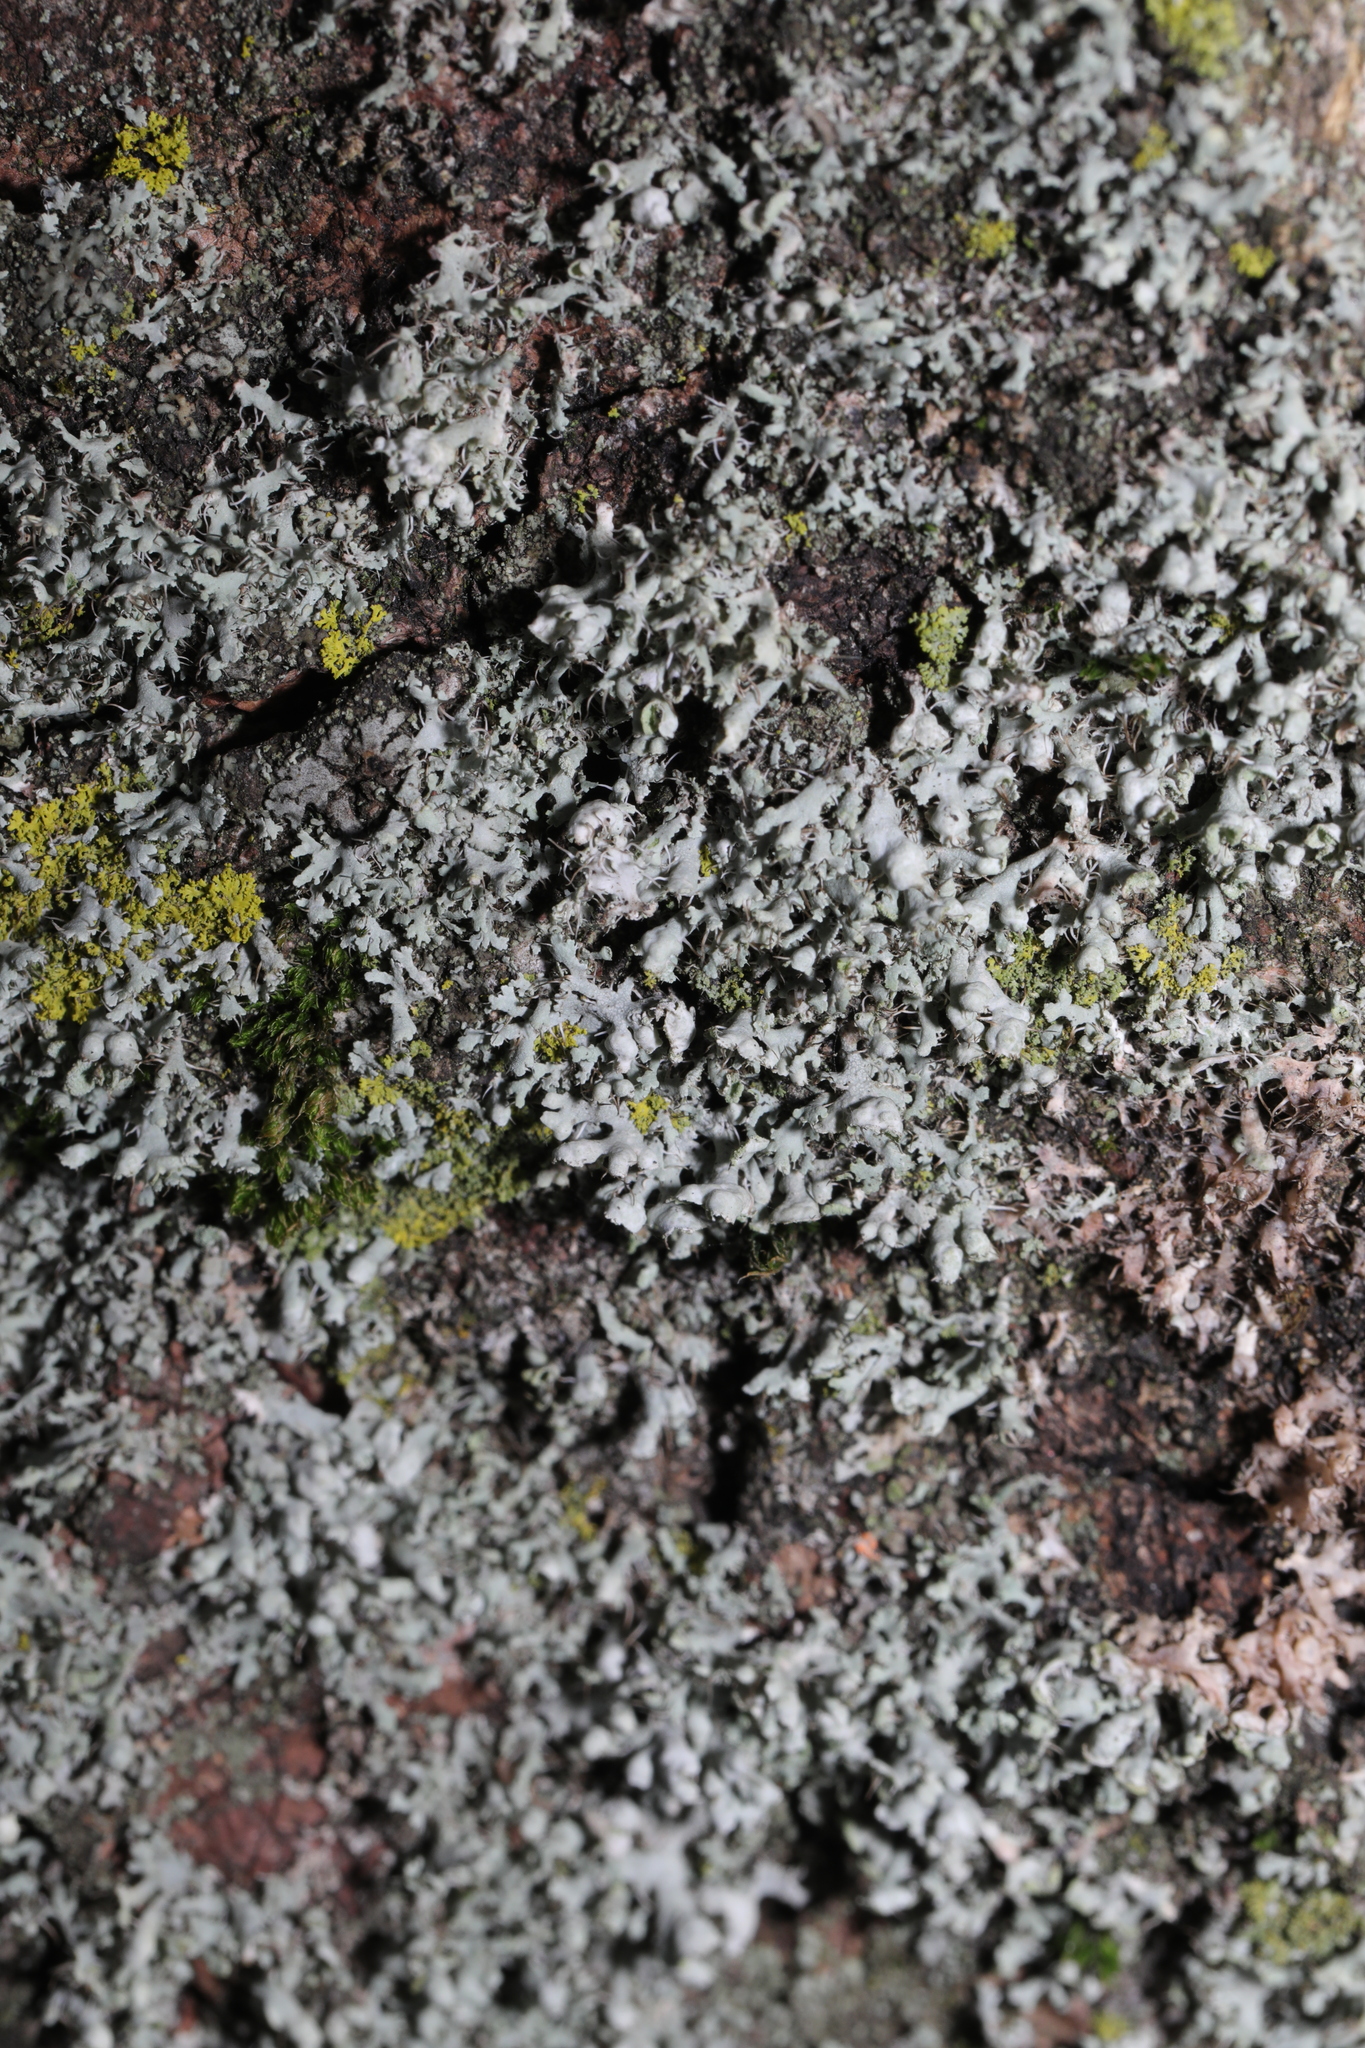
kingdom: Fungi
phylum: Ascomycota
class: Lecanoromycetes
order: Caliciales
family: Physciaceae
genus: Physcia
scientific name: Physcia adscendens
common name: Hooded rosette lichen
